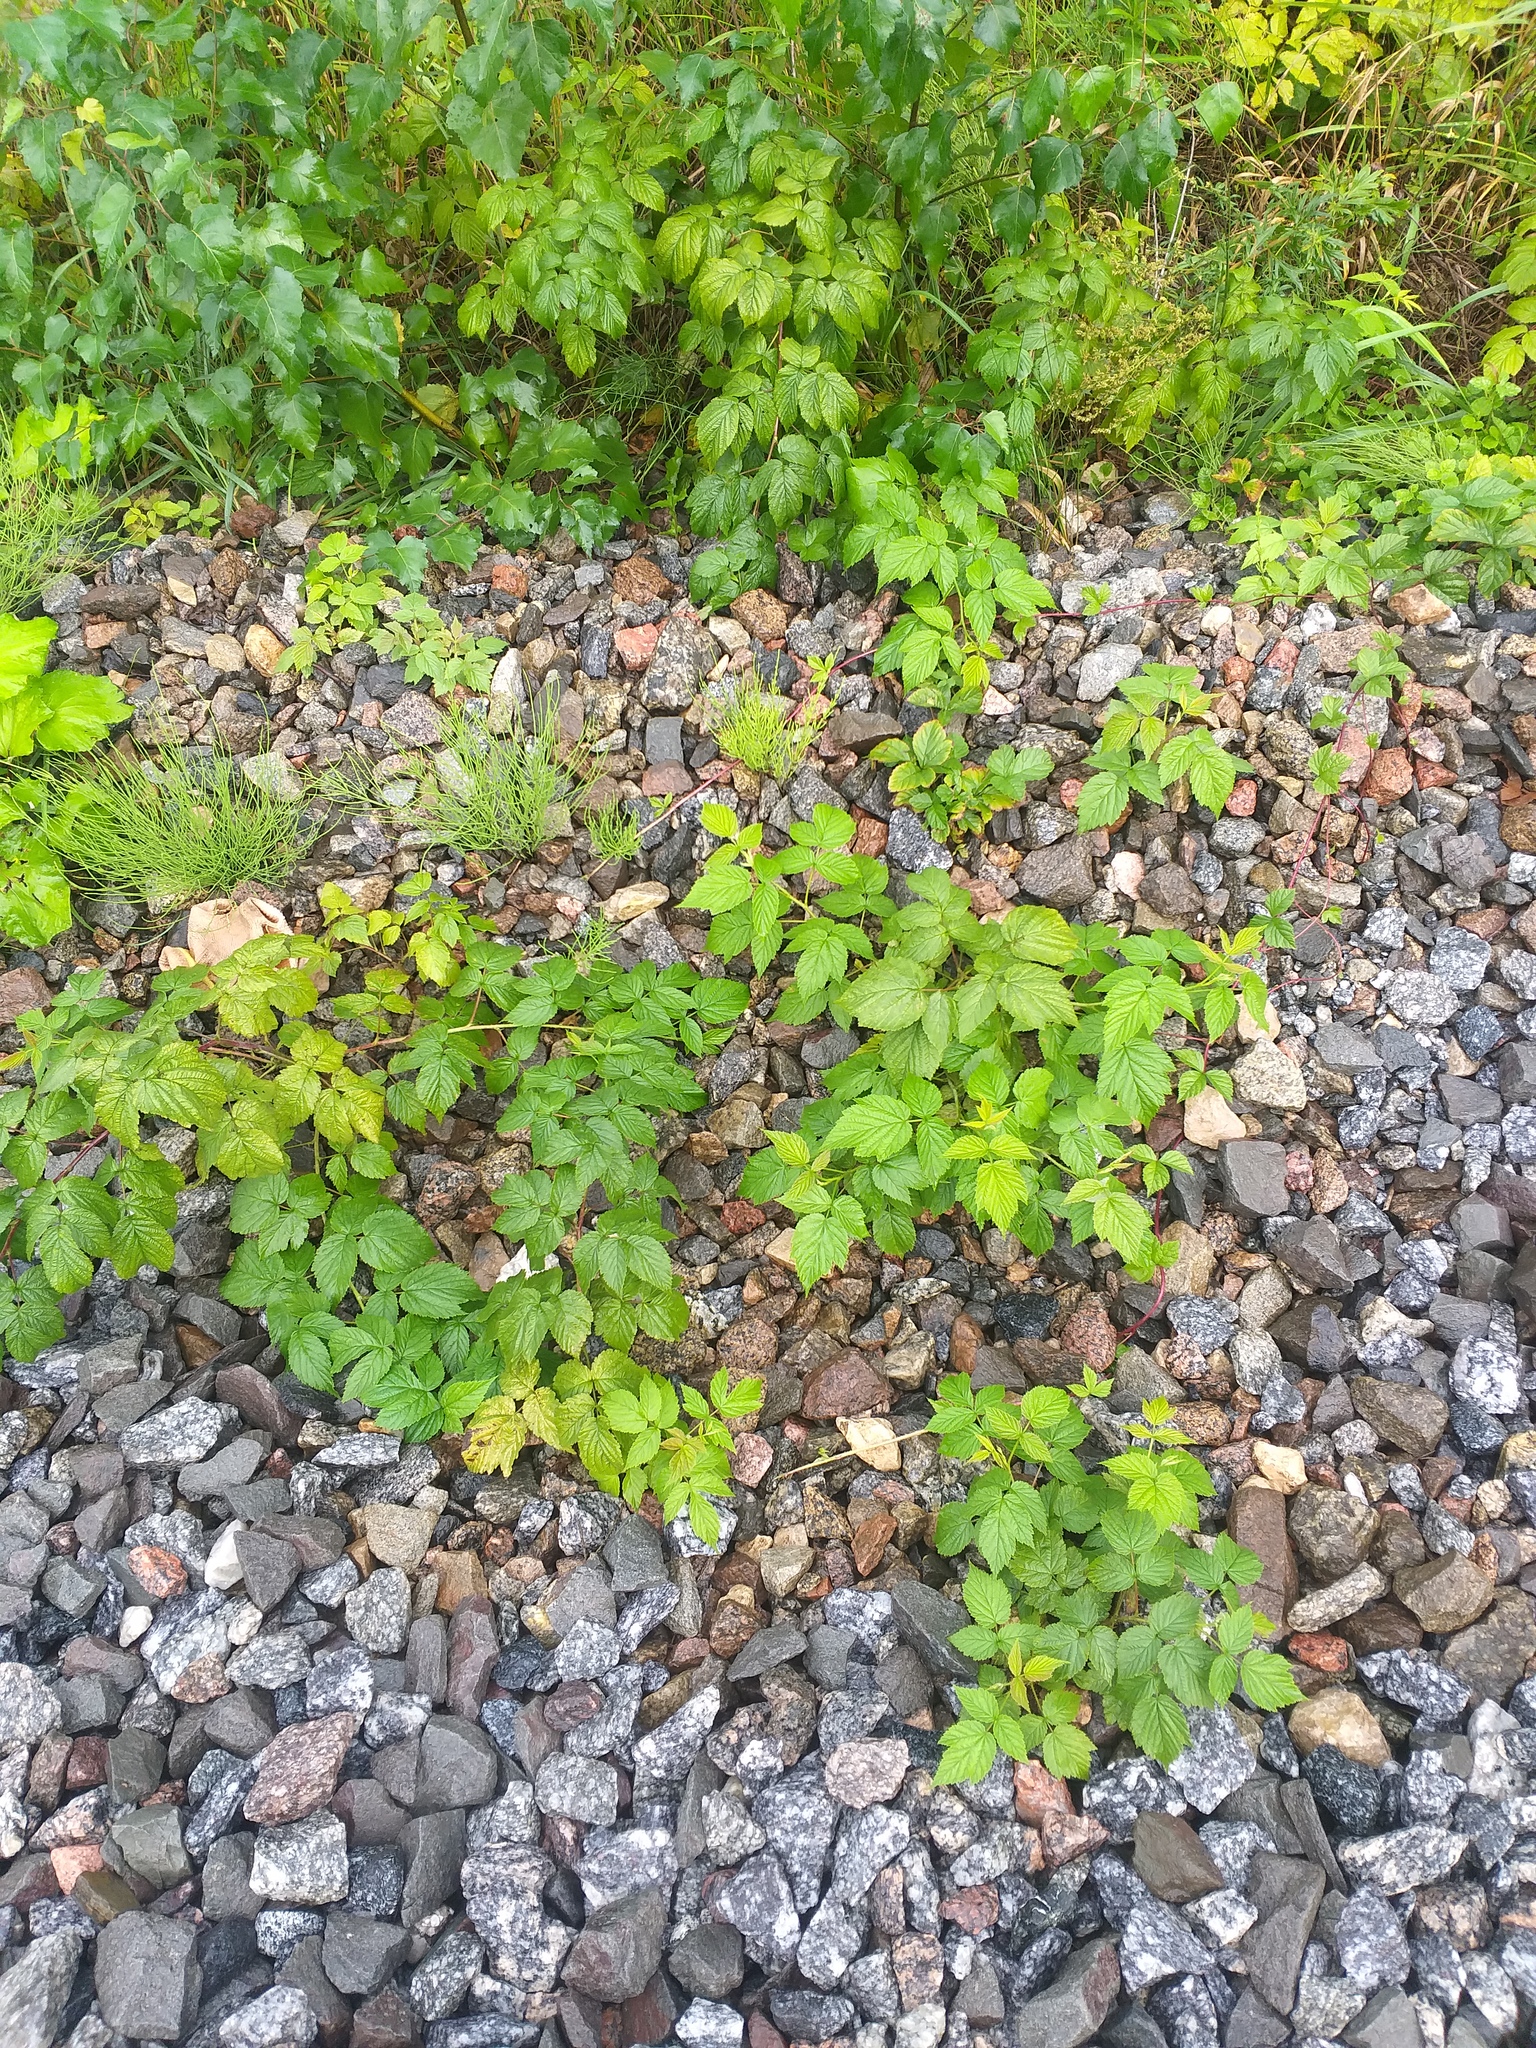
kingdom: Plantae
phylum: Tracheophyta
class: Magnoliopsida
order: Rosales
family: Rosaceae
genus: Rubus
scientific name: Rubus idaeus
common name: Raspberry
